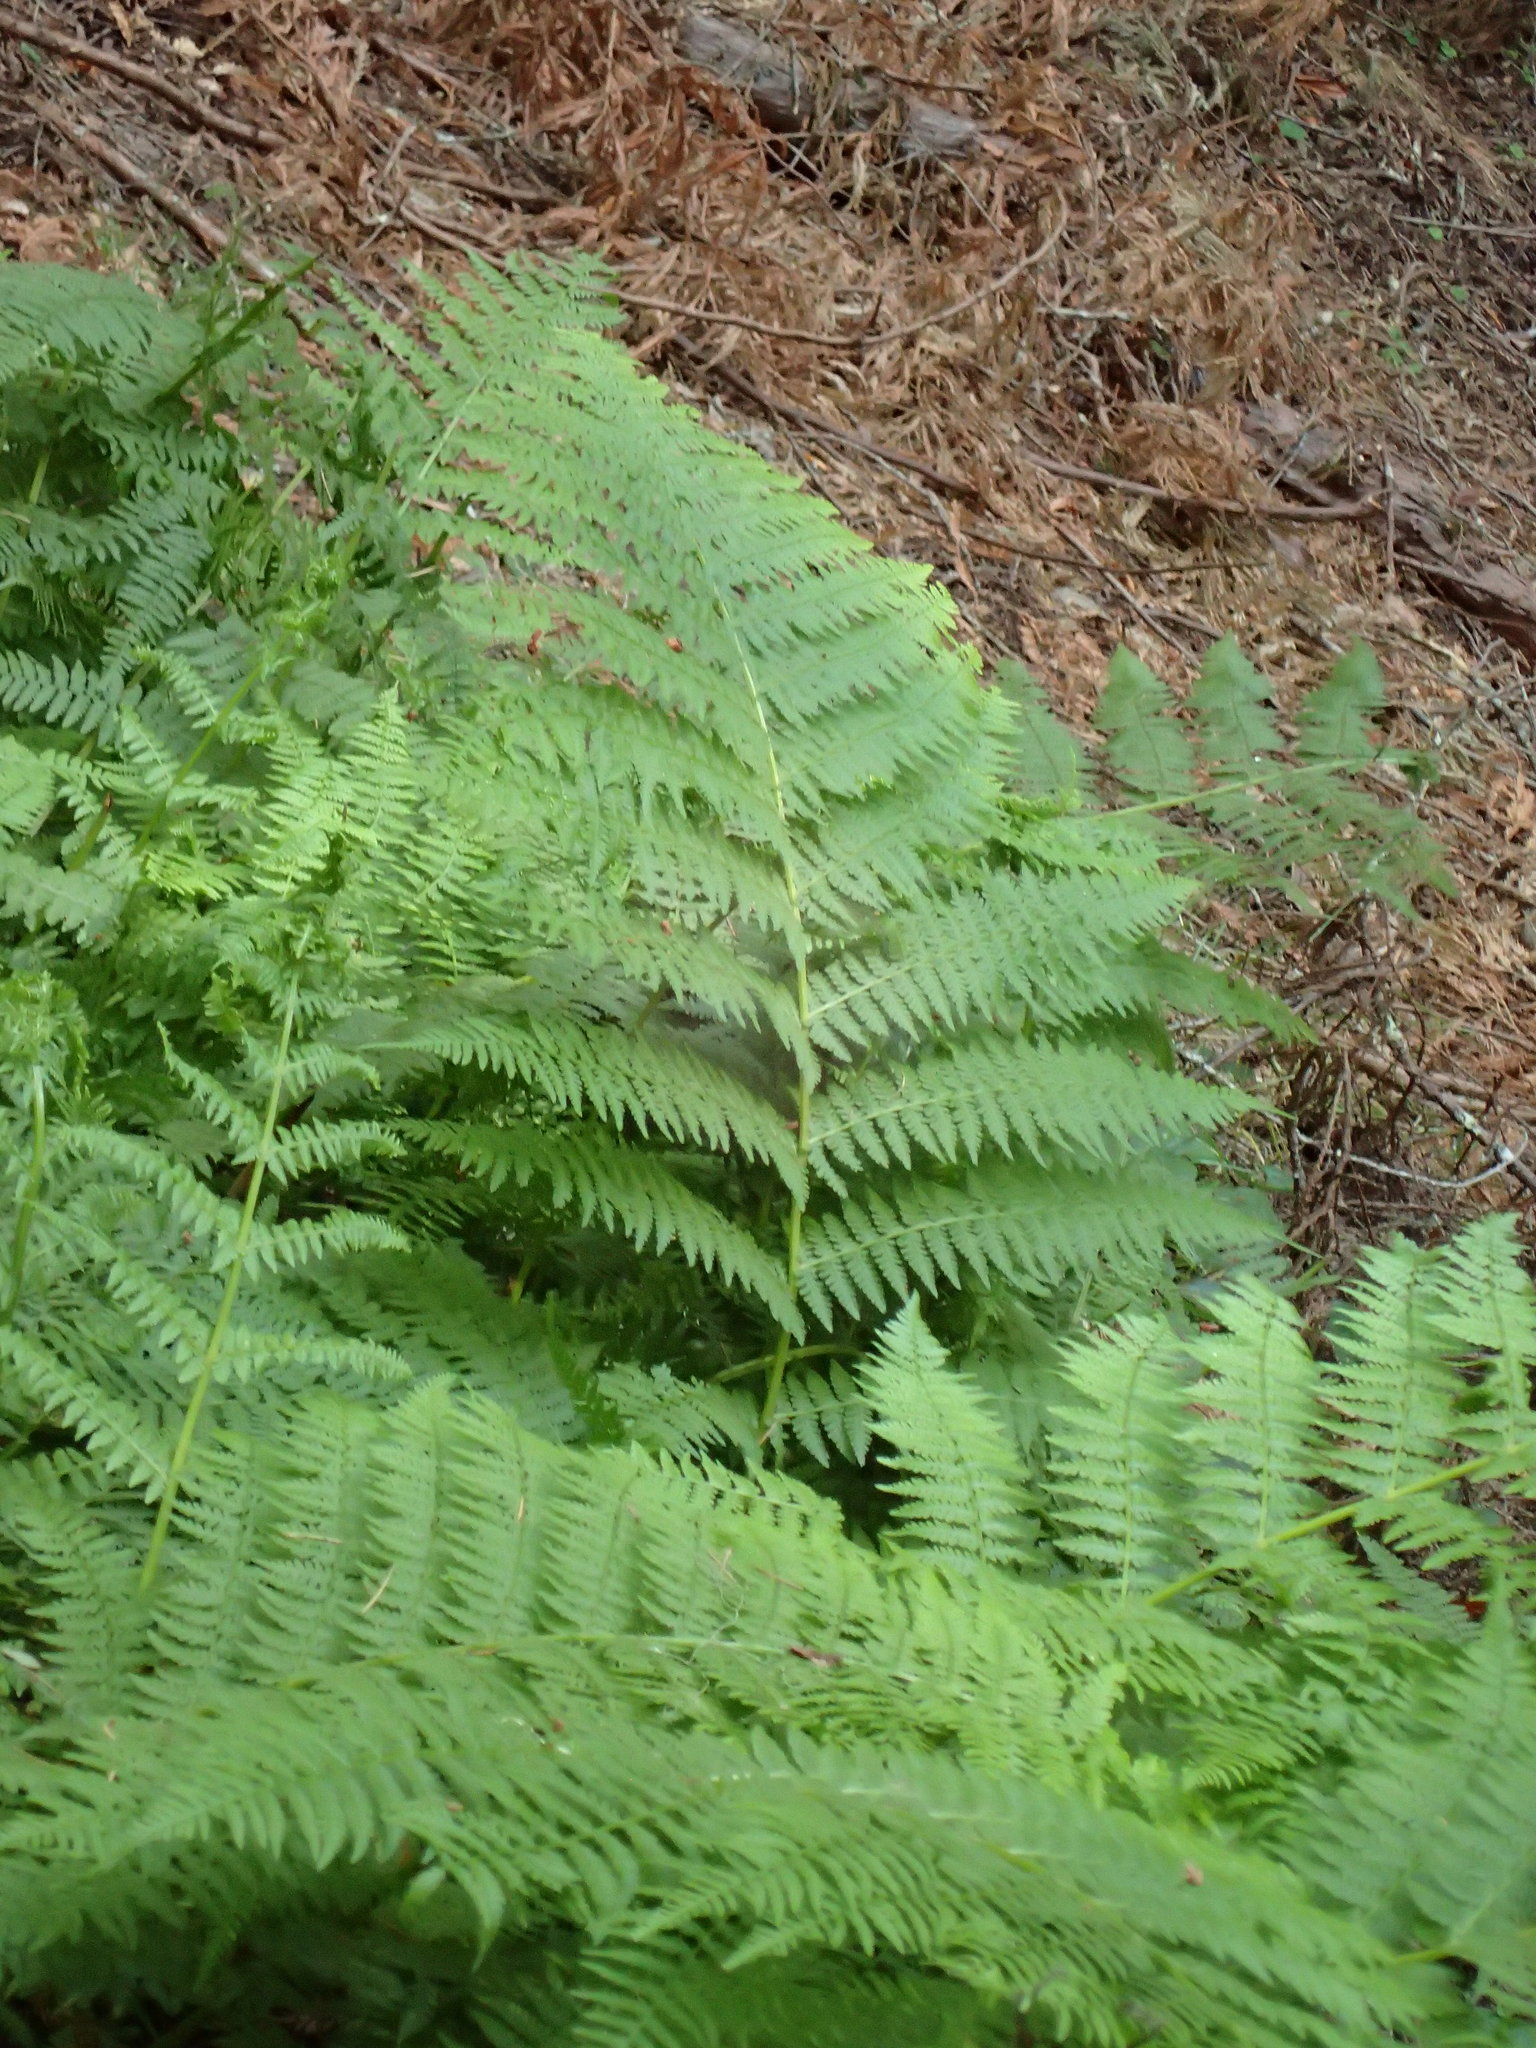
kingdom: Plantae
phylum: Tracheophyta
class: Polypodiopsida
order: Polypodiales
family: Athyriaceae
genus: Athyrium
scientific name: Athyrium filix-femina
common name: Lady fern
